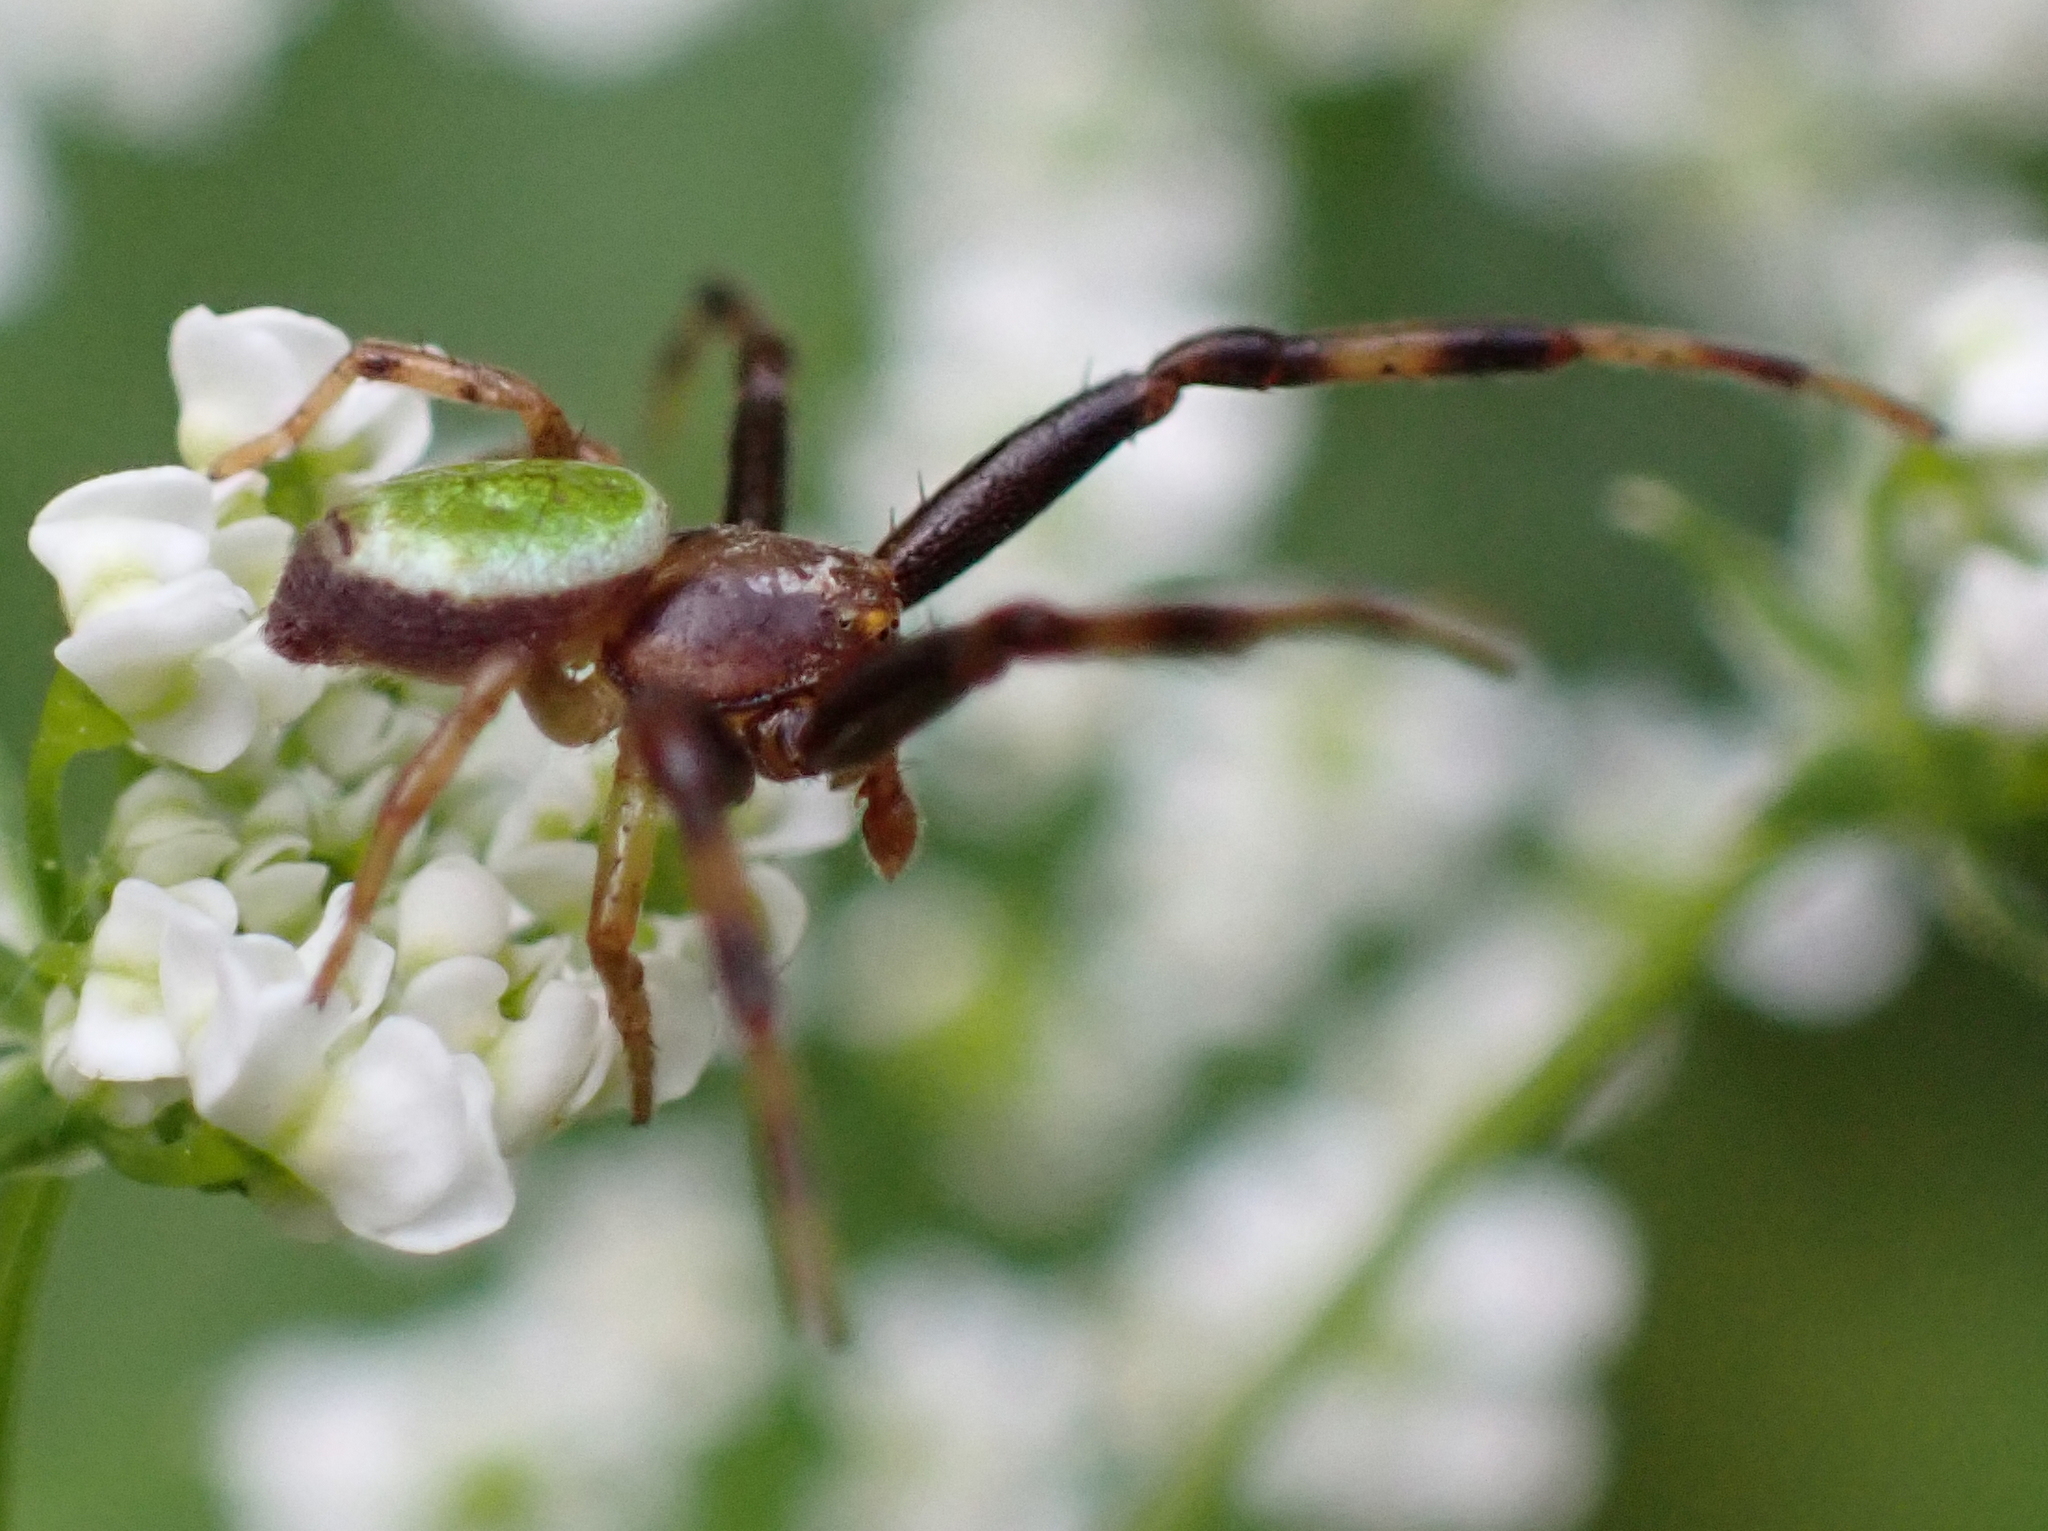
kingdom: Animalia
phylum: Arthropoda
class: Arachnida
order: Araneae
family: Thomisidae
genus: Ebrechtella
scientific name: Ebrechtella tricuspidata
